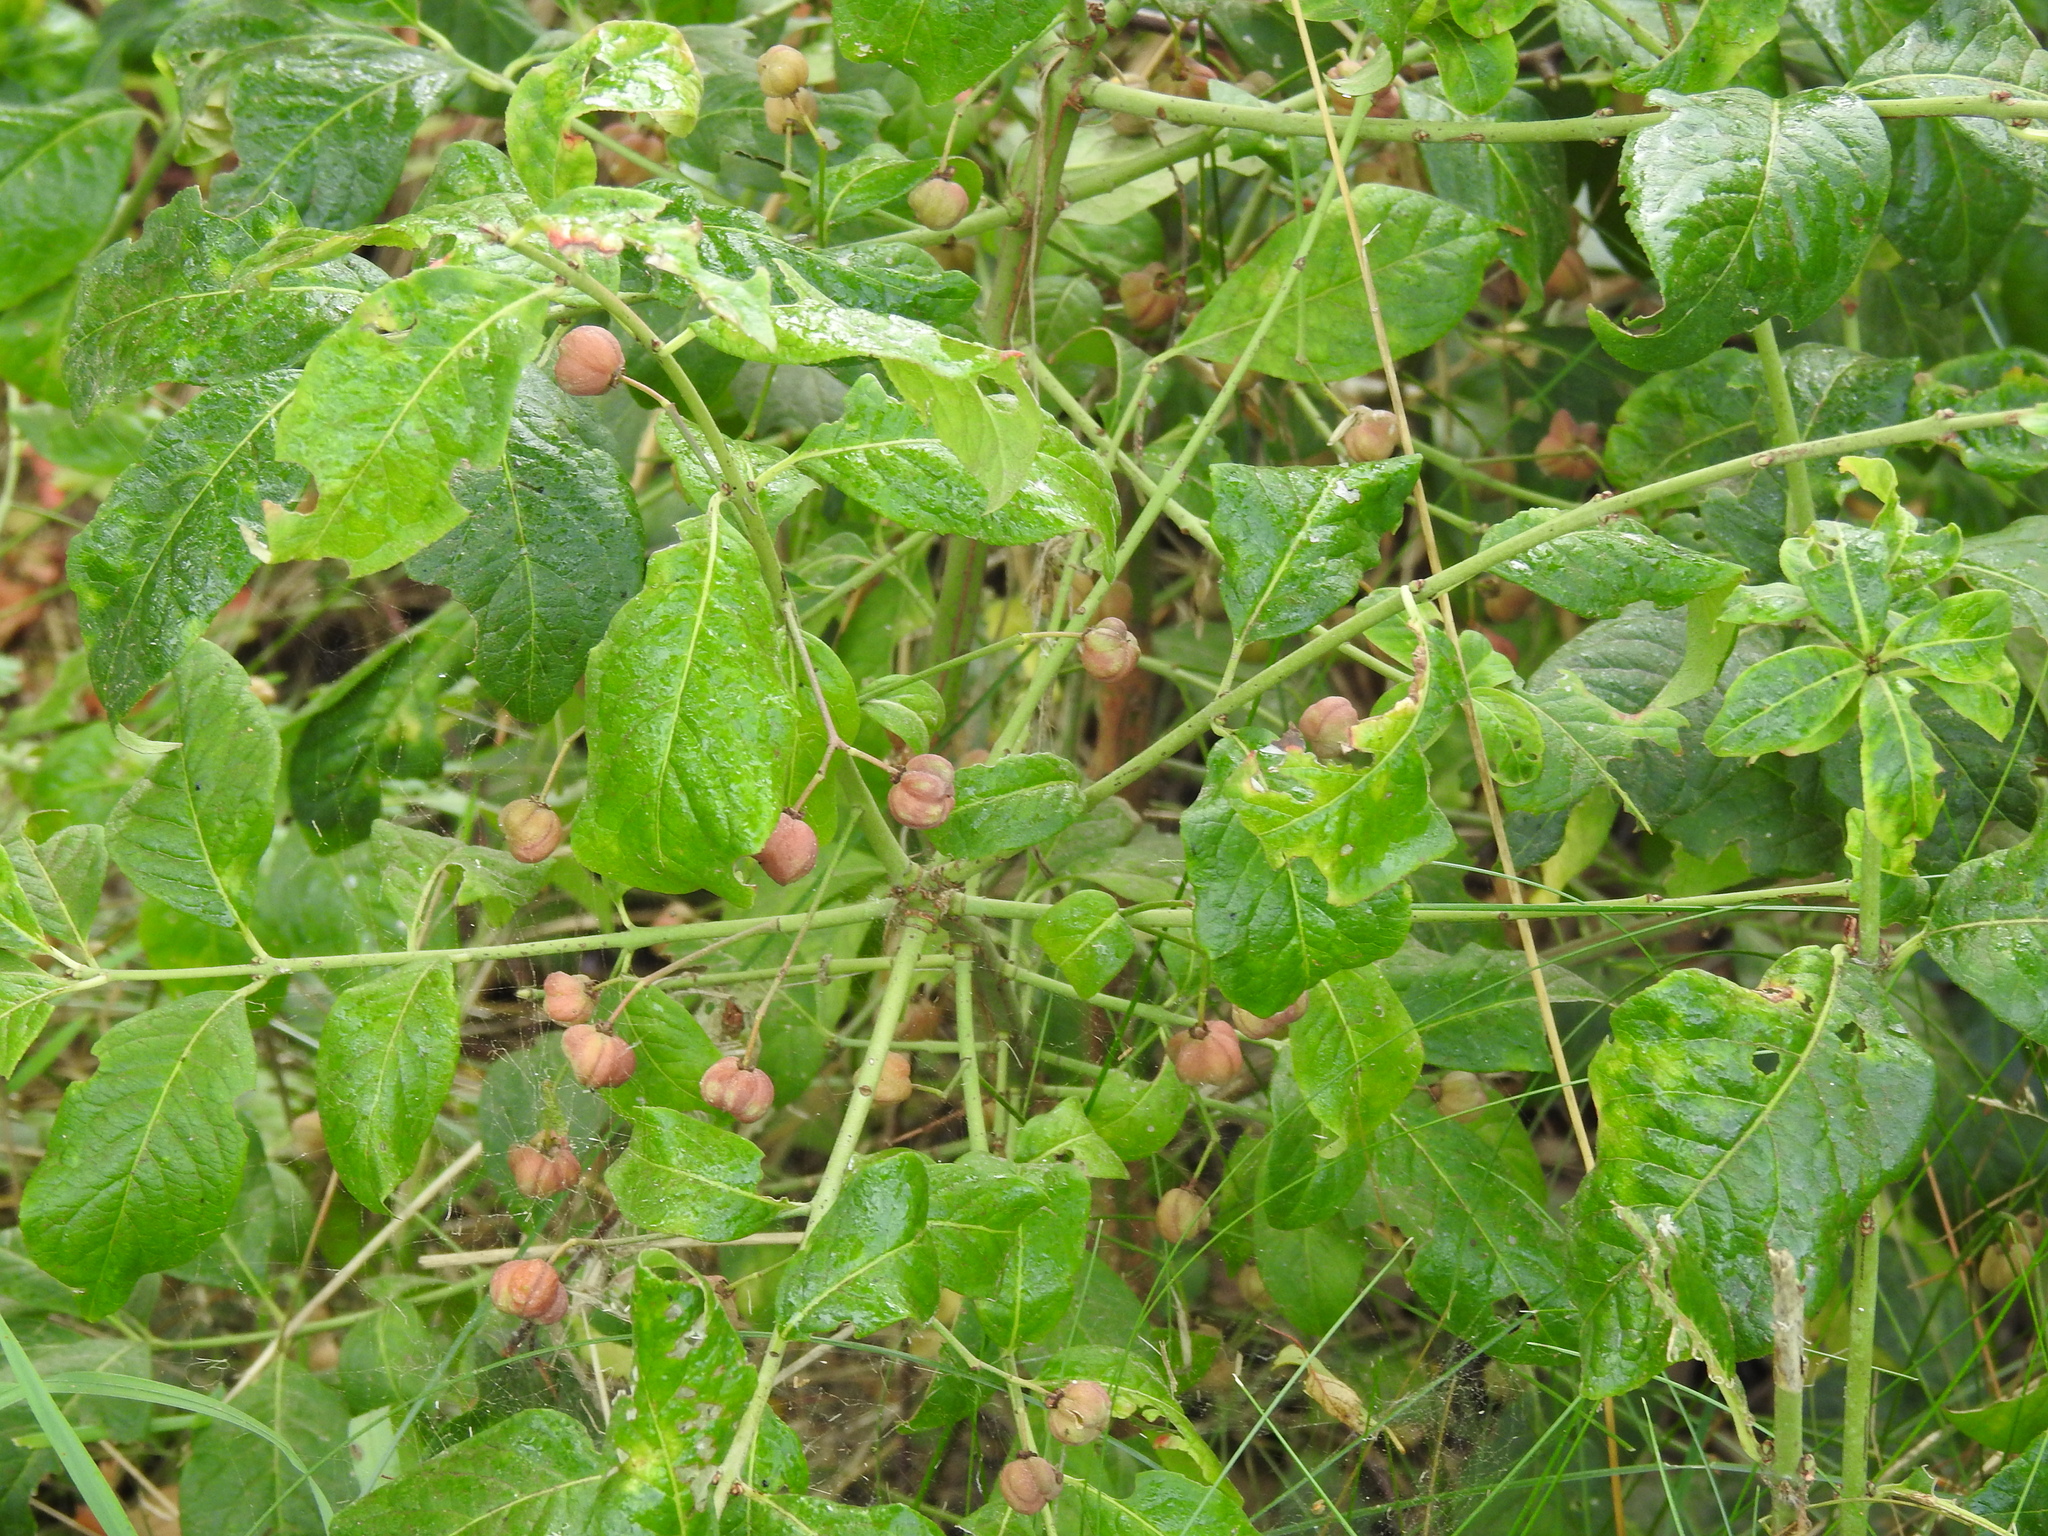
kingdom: Plantae
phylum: Tracheophyta
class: Magnoliopsida
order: Celastrales
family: Celastraceae
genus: Euonymus
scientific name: Euonymus europaeus
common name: Spindle
